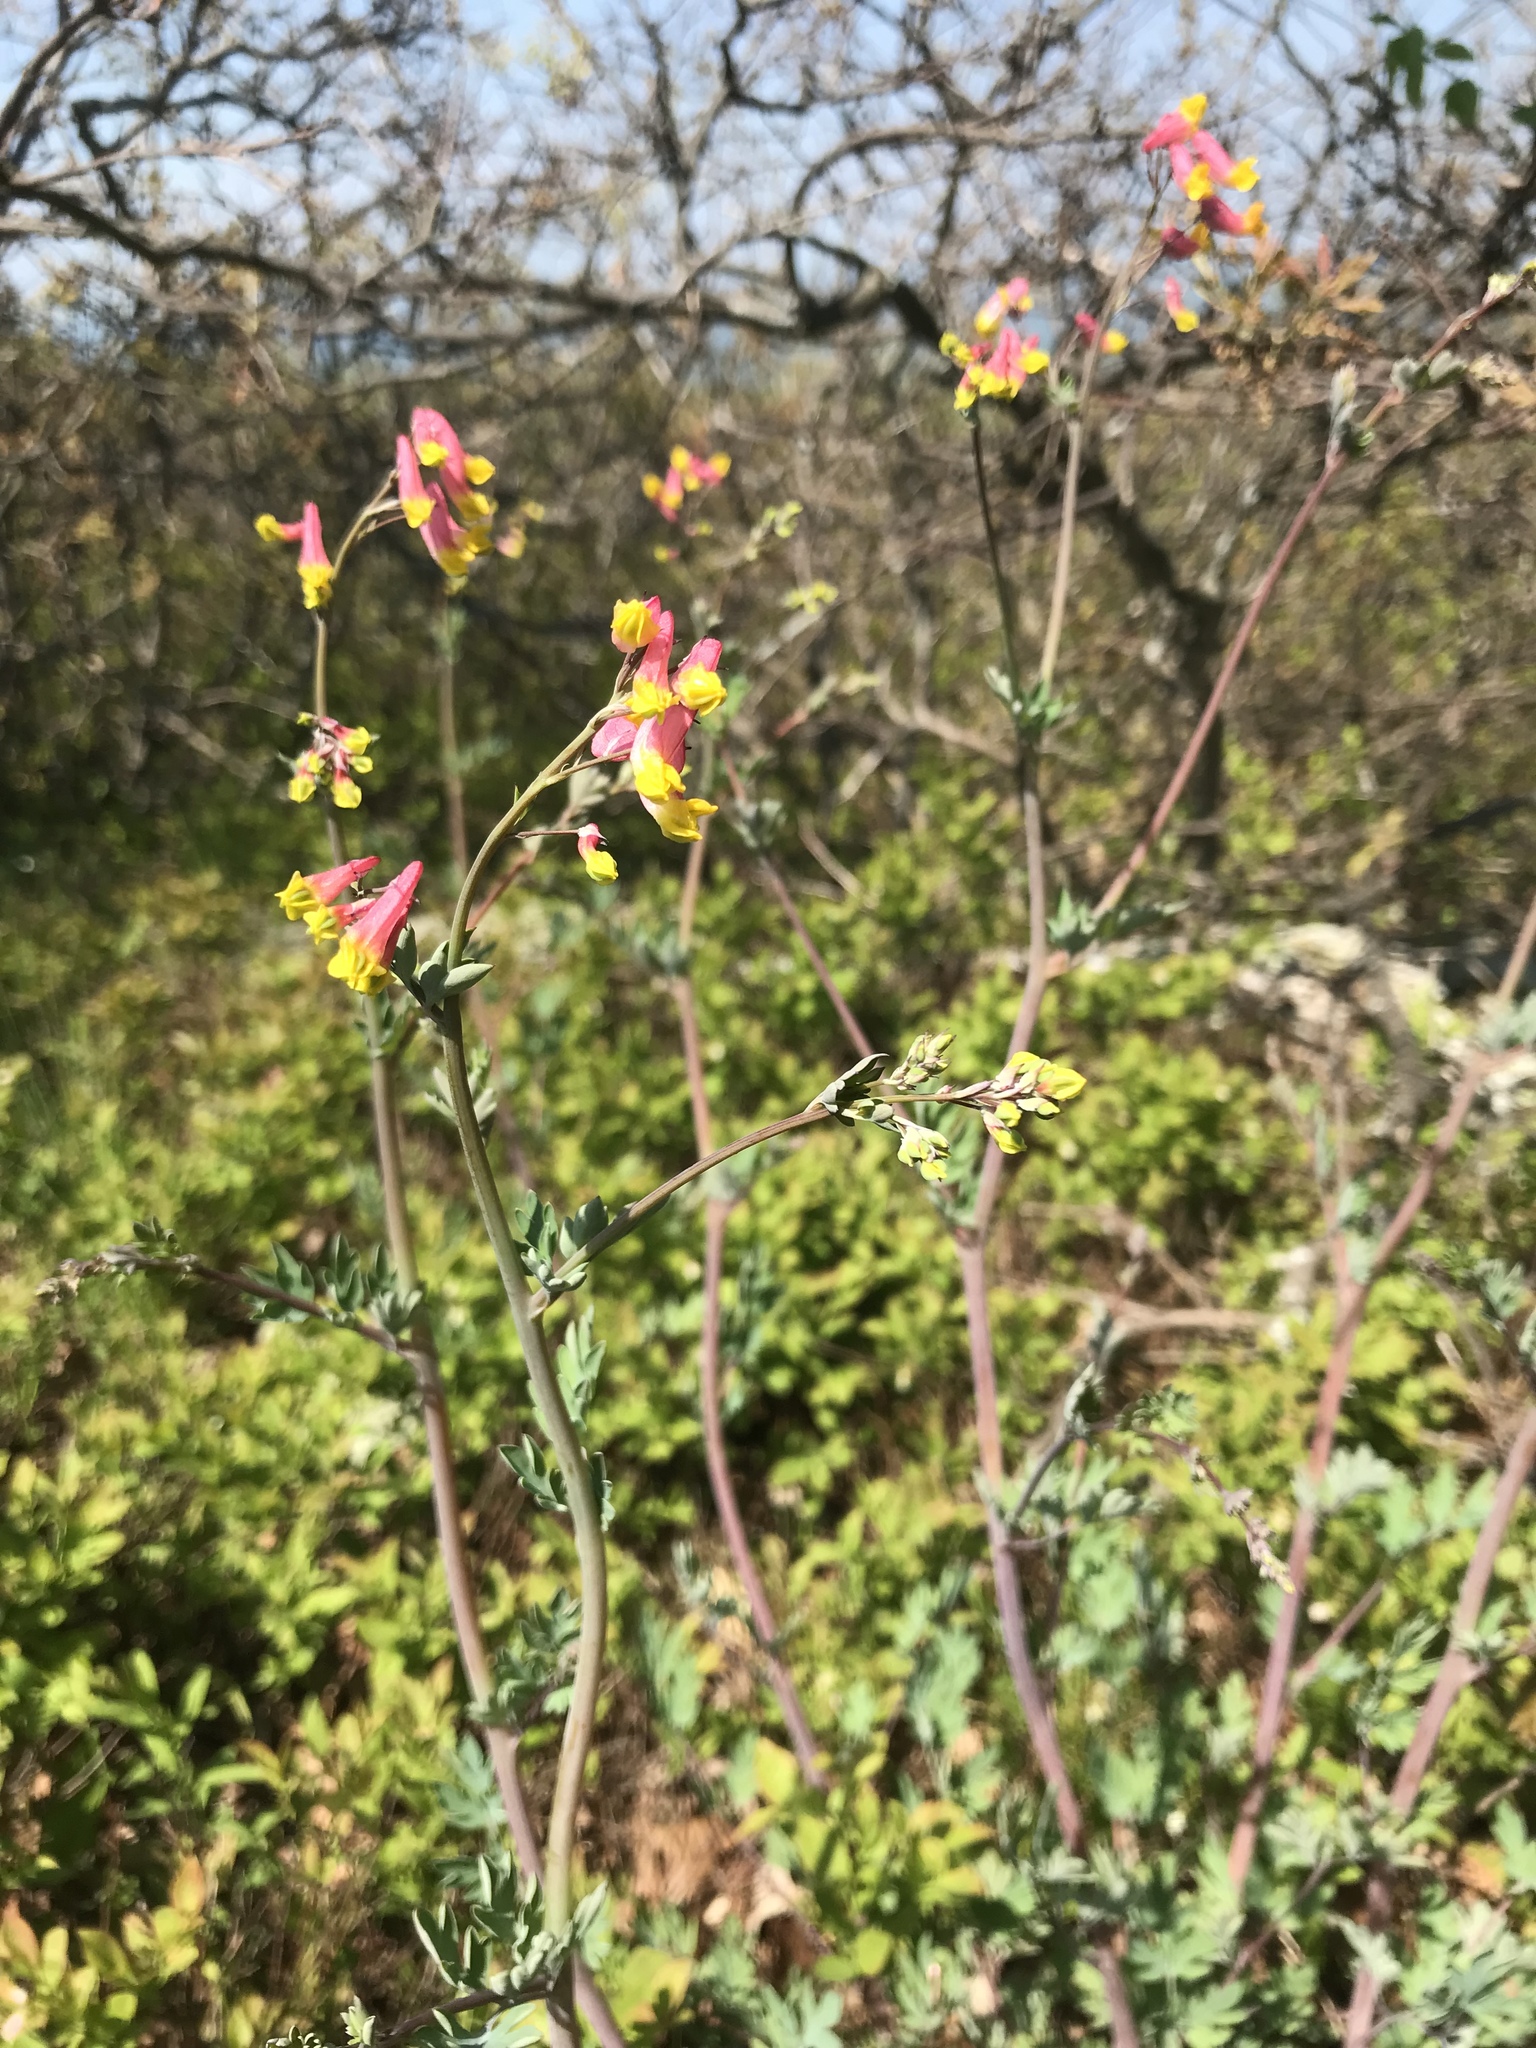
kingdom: Plantae
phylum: Tracheophyta
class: Magnoliopsida
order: Ranunculales
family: Papaveraceae
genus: Capnoides
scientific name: Capnoides sempervirens
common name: Rock harlequin
